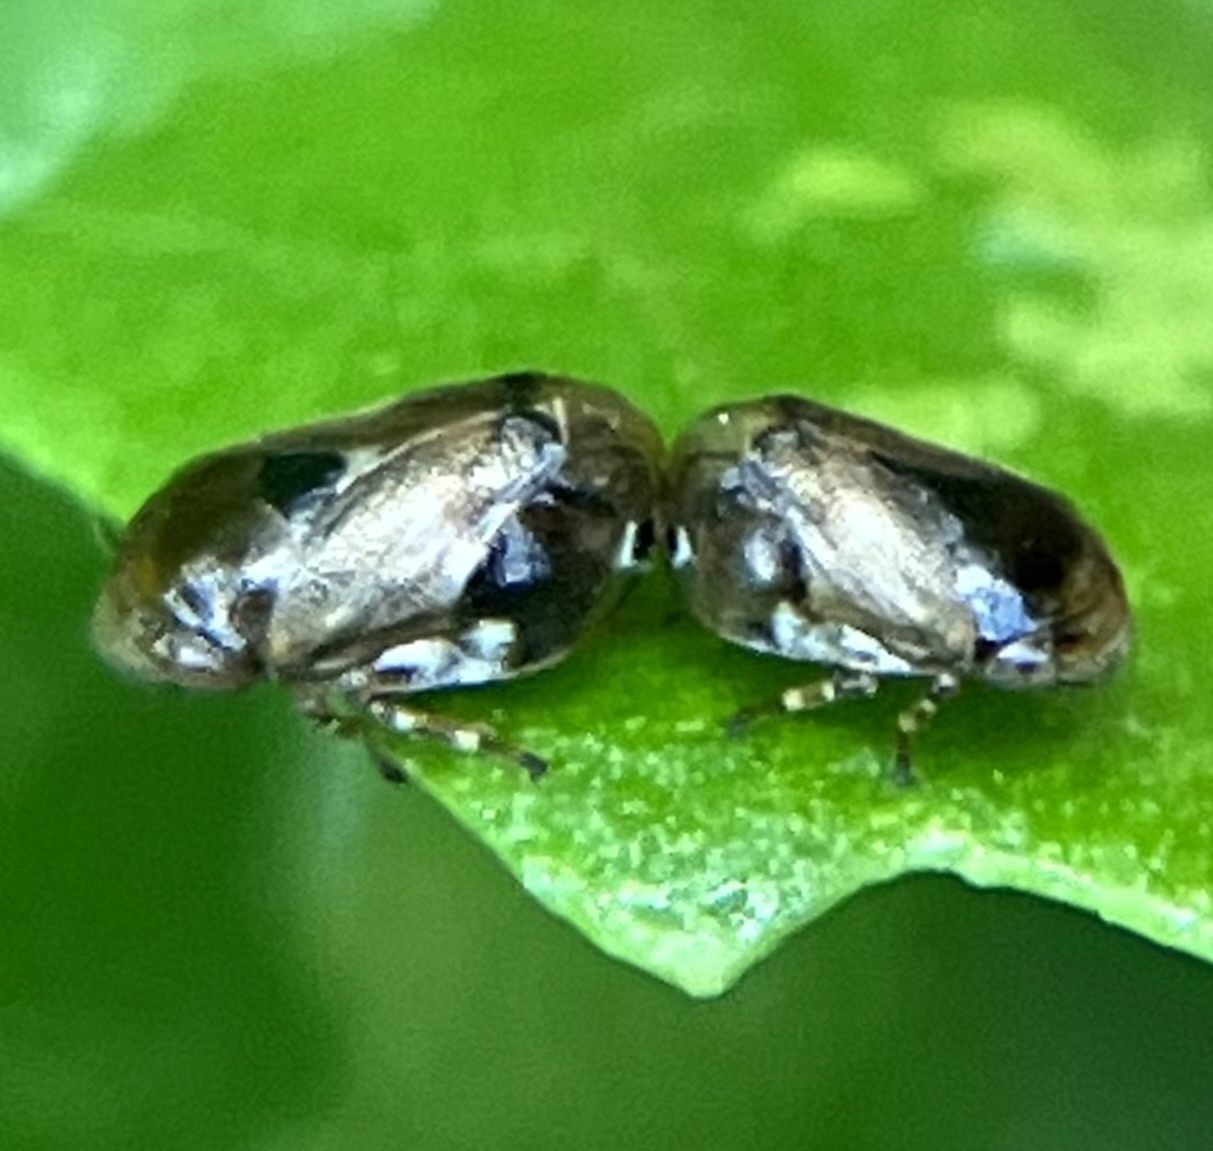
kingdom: Animalia
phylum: Arthropoda
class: Insecta
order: Hemiptera
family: Clastopteridae
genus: Clastoptera
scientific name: Clastoptera xanthocephala
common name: Sunflower spittlebug
